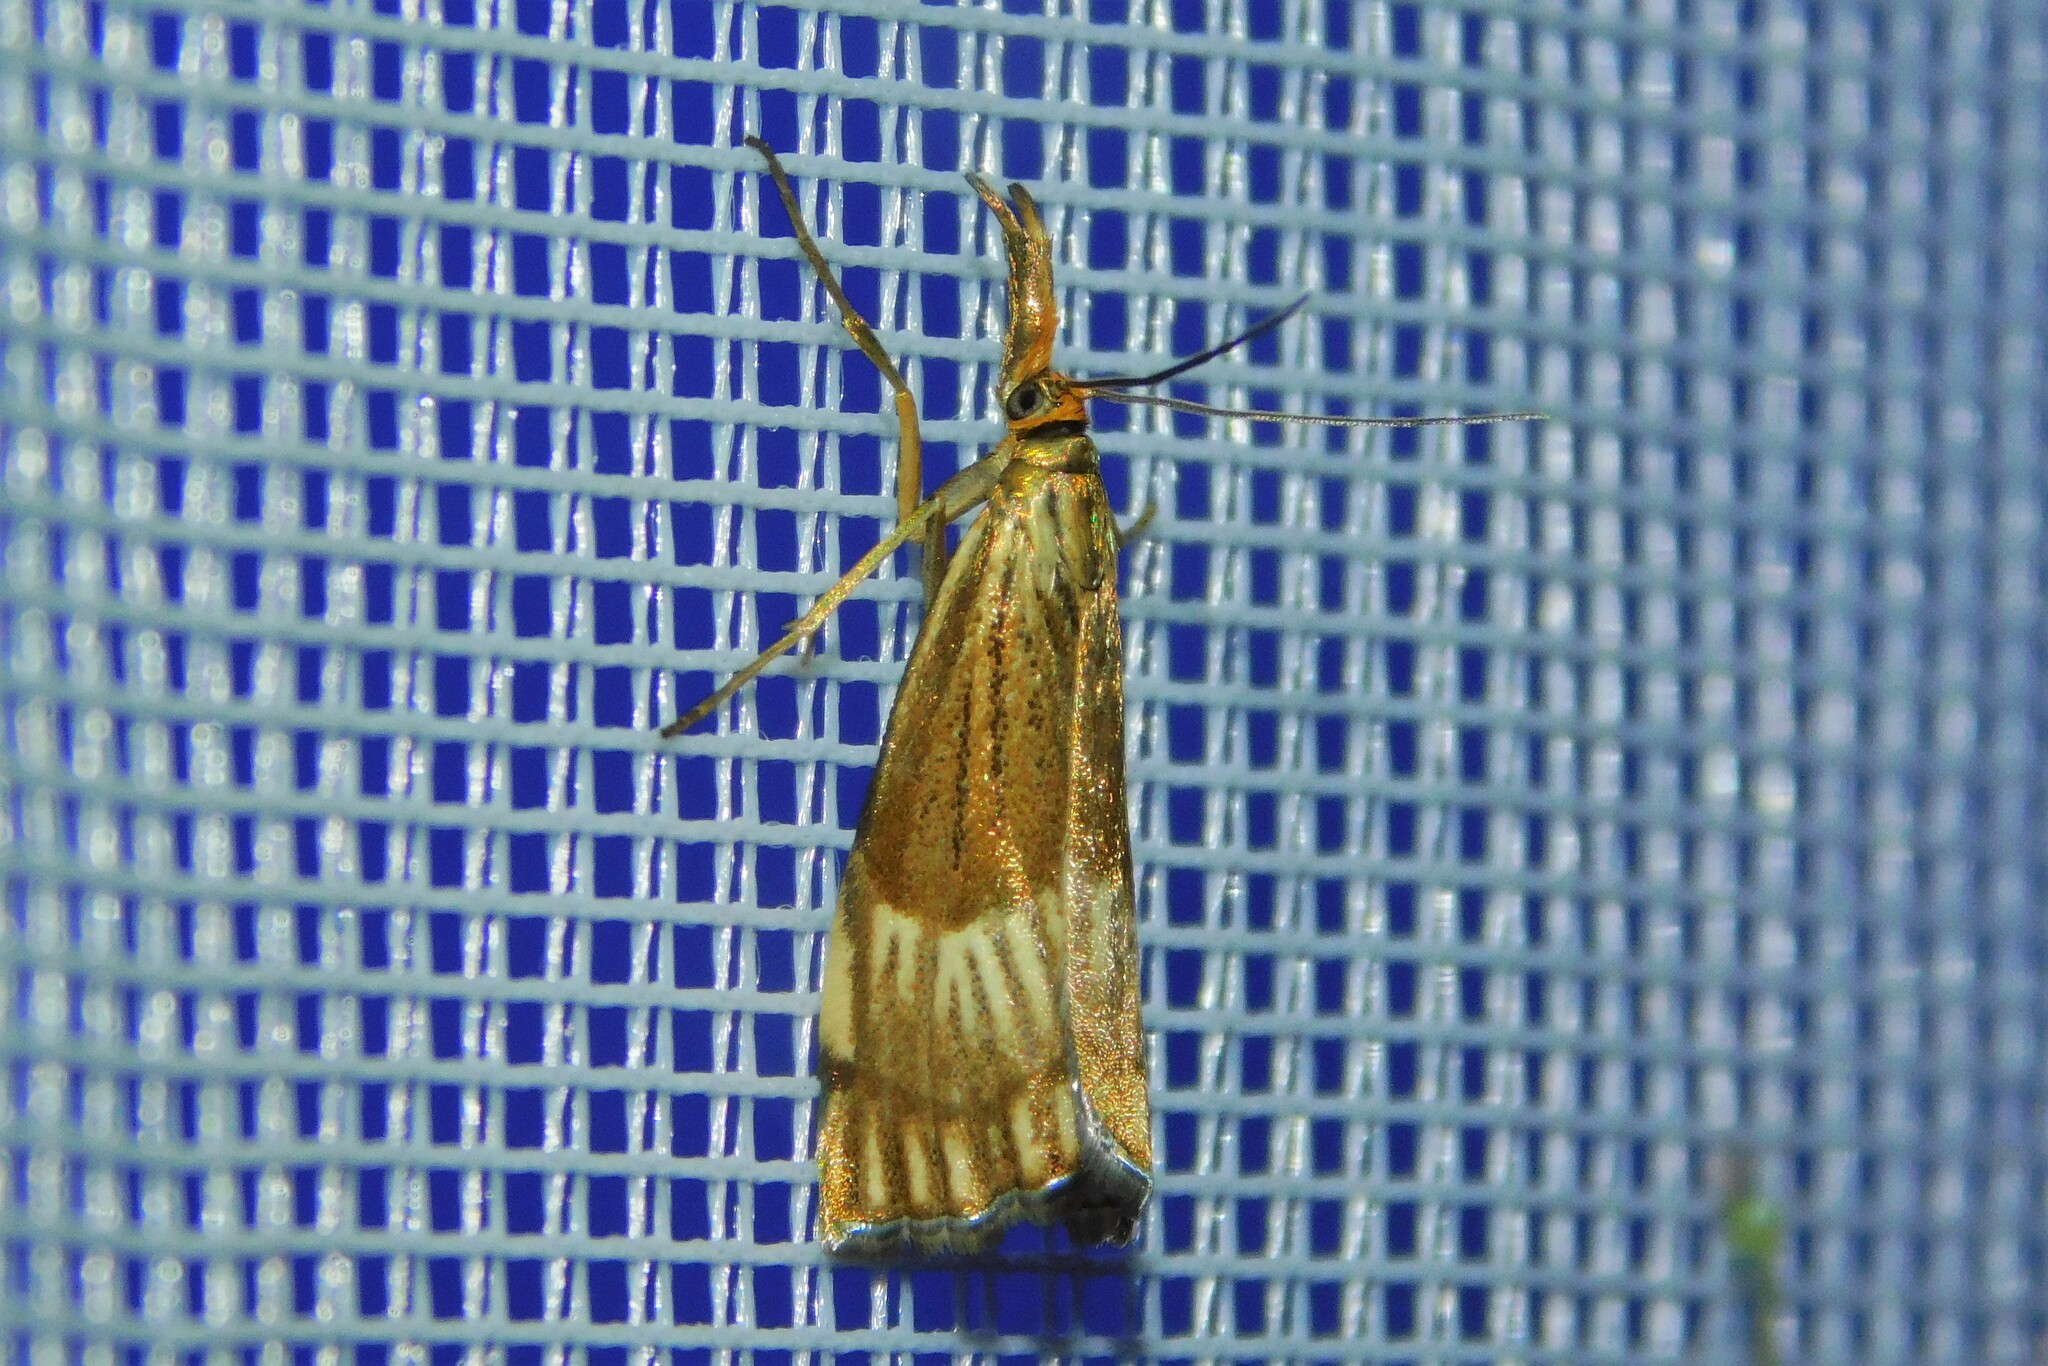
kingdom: Animalia
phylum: Arthropoda
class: Insecta
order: Lepidoptera
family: Crambidae
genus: Chrysocrambus
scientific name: Chrysocrambus linetella
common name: Orange-bar grass-veneer
